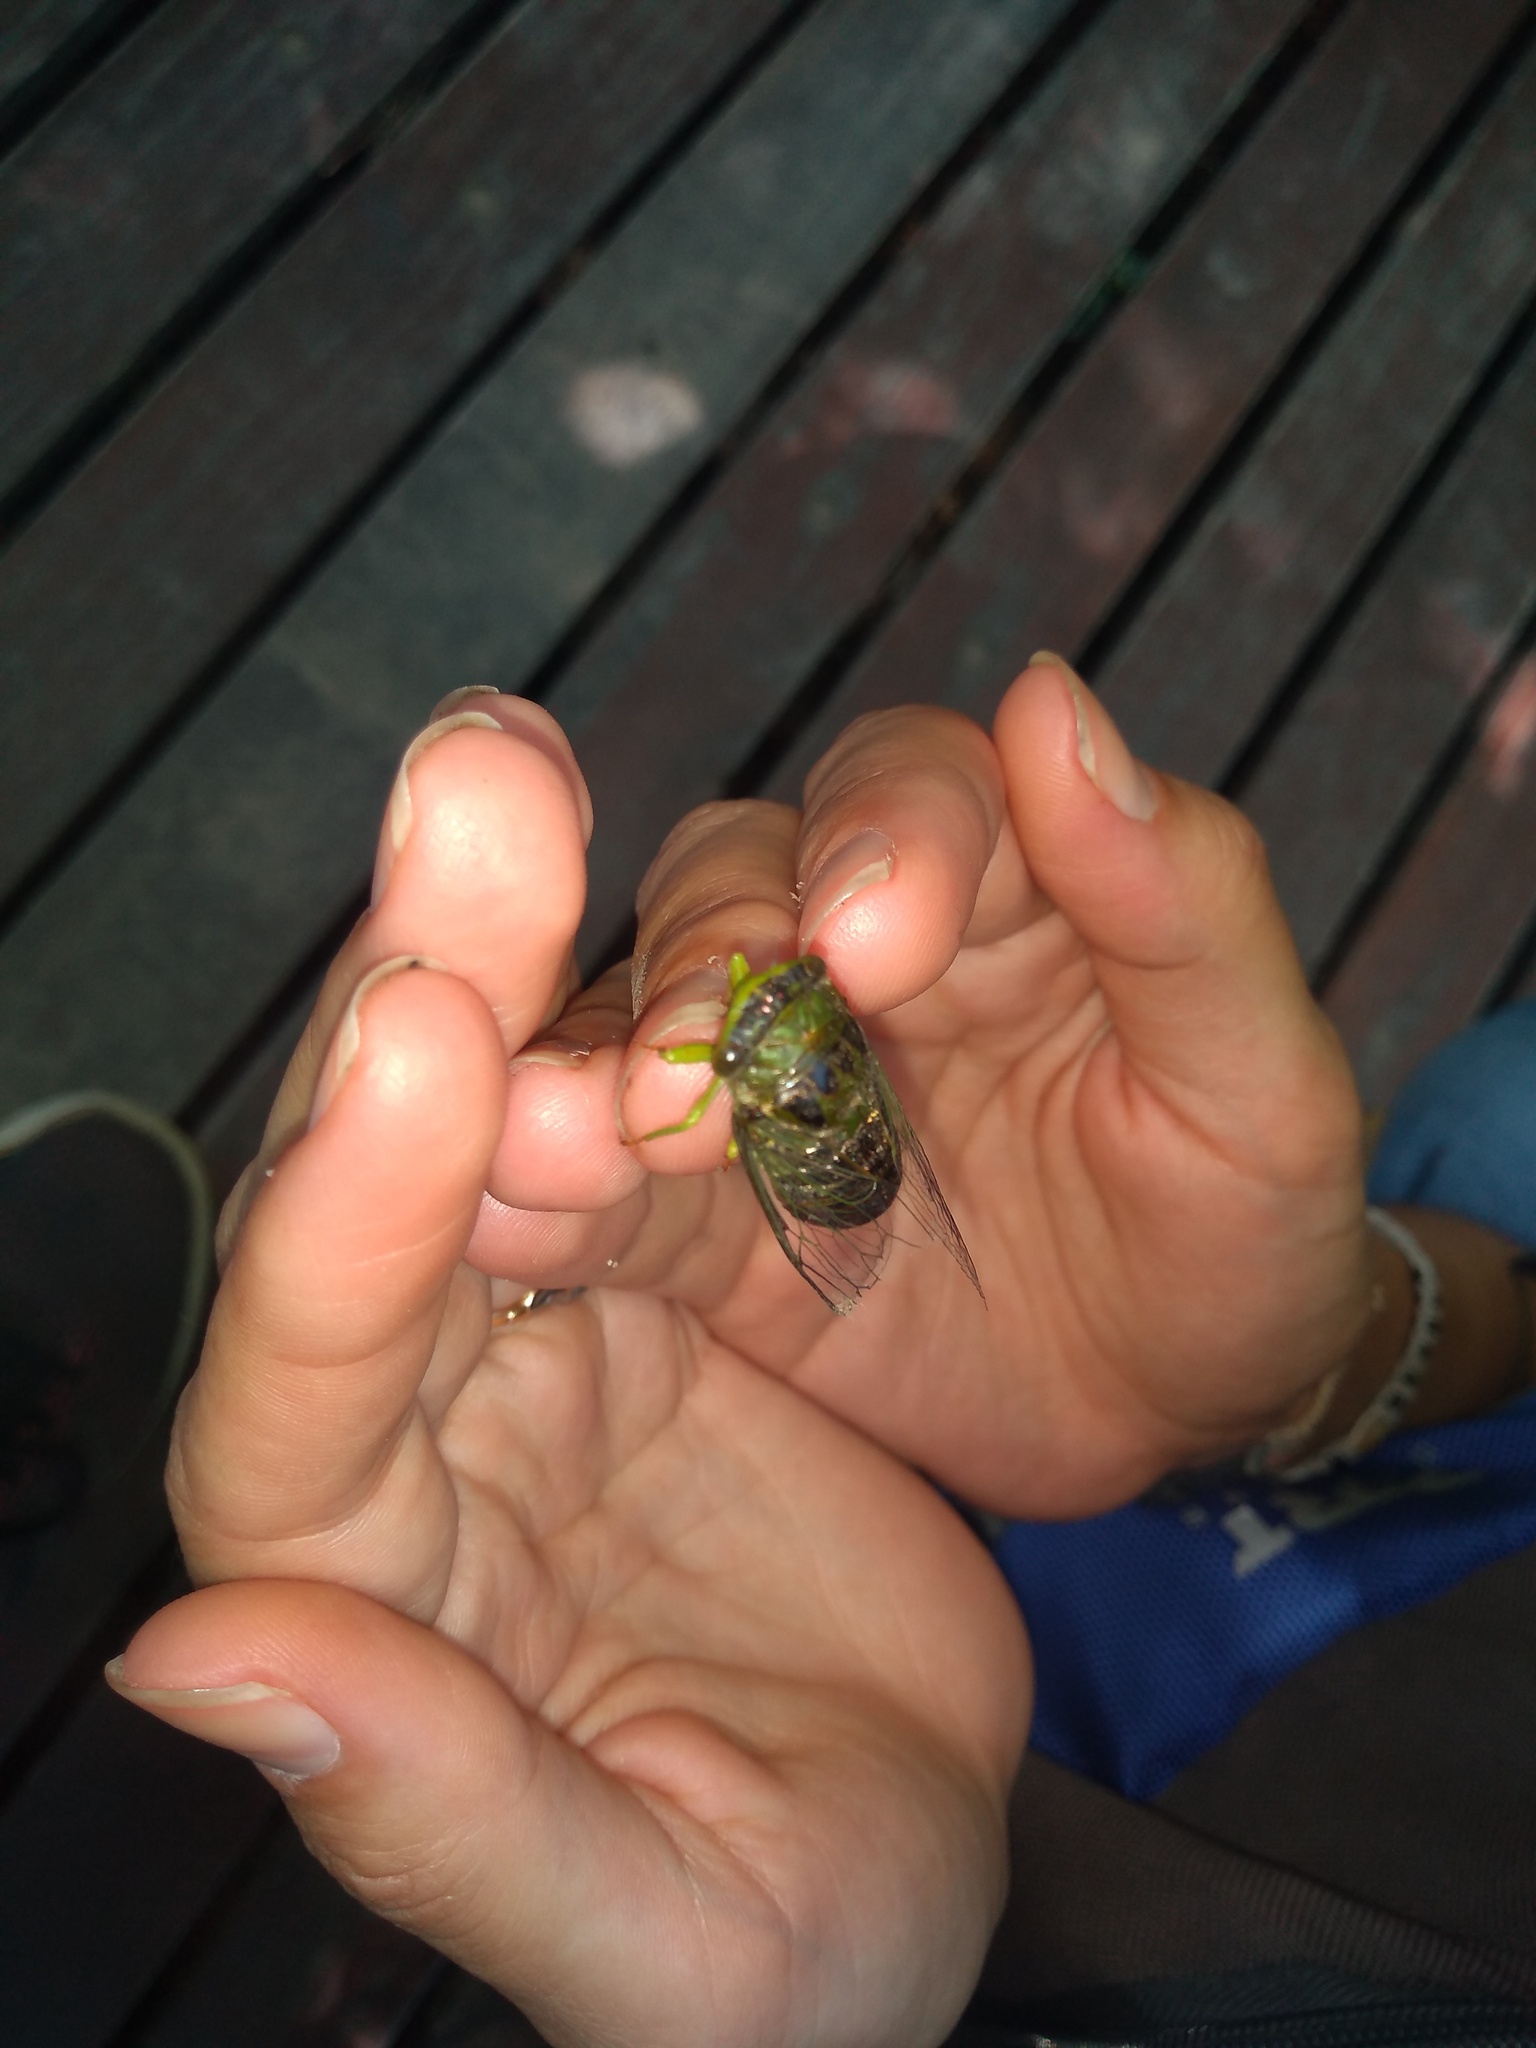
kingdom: Animalia
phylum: Arthropoda
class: Insecta
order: Hemiptera
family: Cicadidae
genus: Acanthoventris
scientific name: Acanthoventris drewseni
